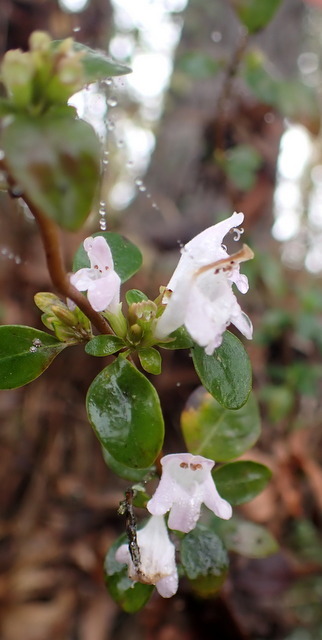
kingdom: Plantae
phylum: Tracheophyta
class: Magnoliopsida
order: Lamiales
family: Lamiaceae
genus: Clinopodium
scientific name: Clinopodium carolinianum
